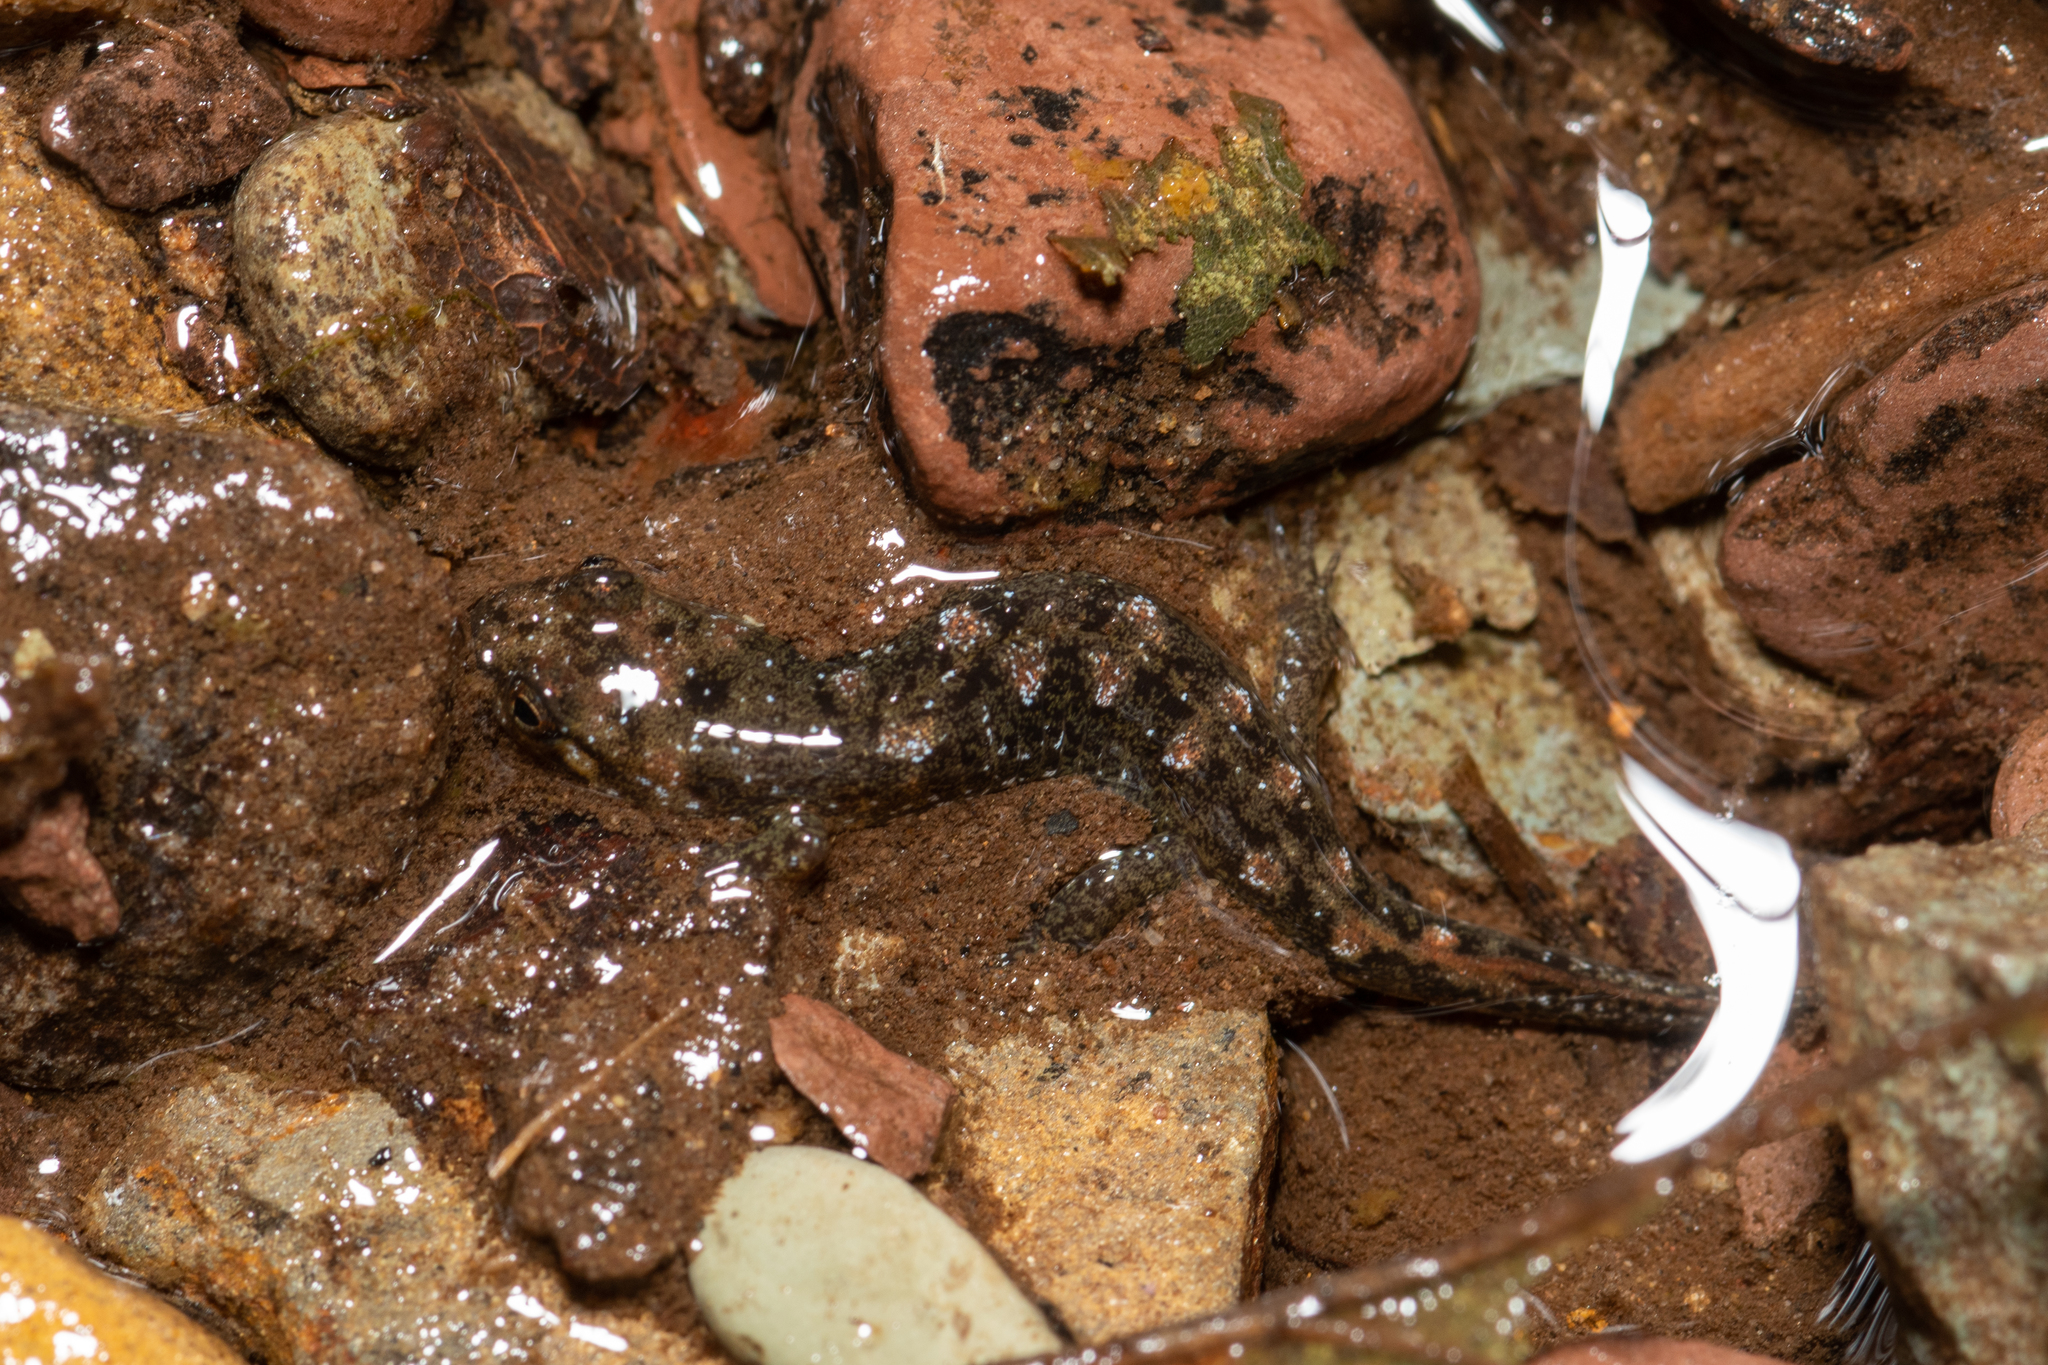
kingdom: Animalia
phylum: Chordata
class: Amphibia
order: Caudata
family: Plethodontidae
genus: Desmognathus
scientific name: Desmognathus monticola
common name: Seal salamander
